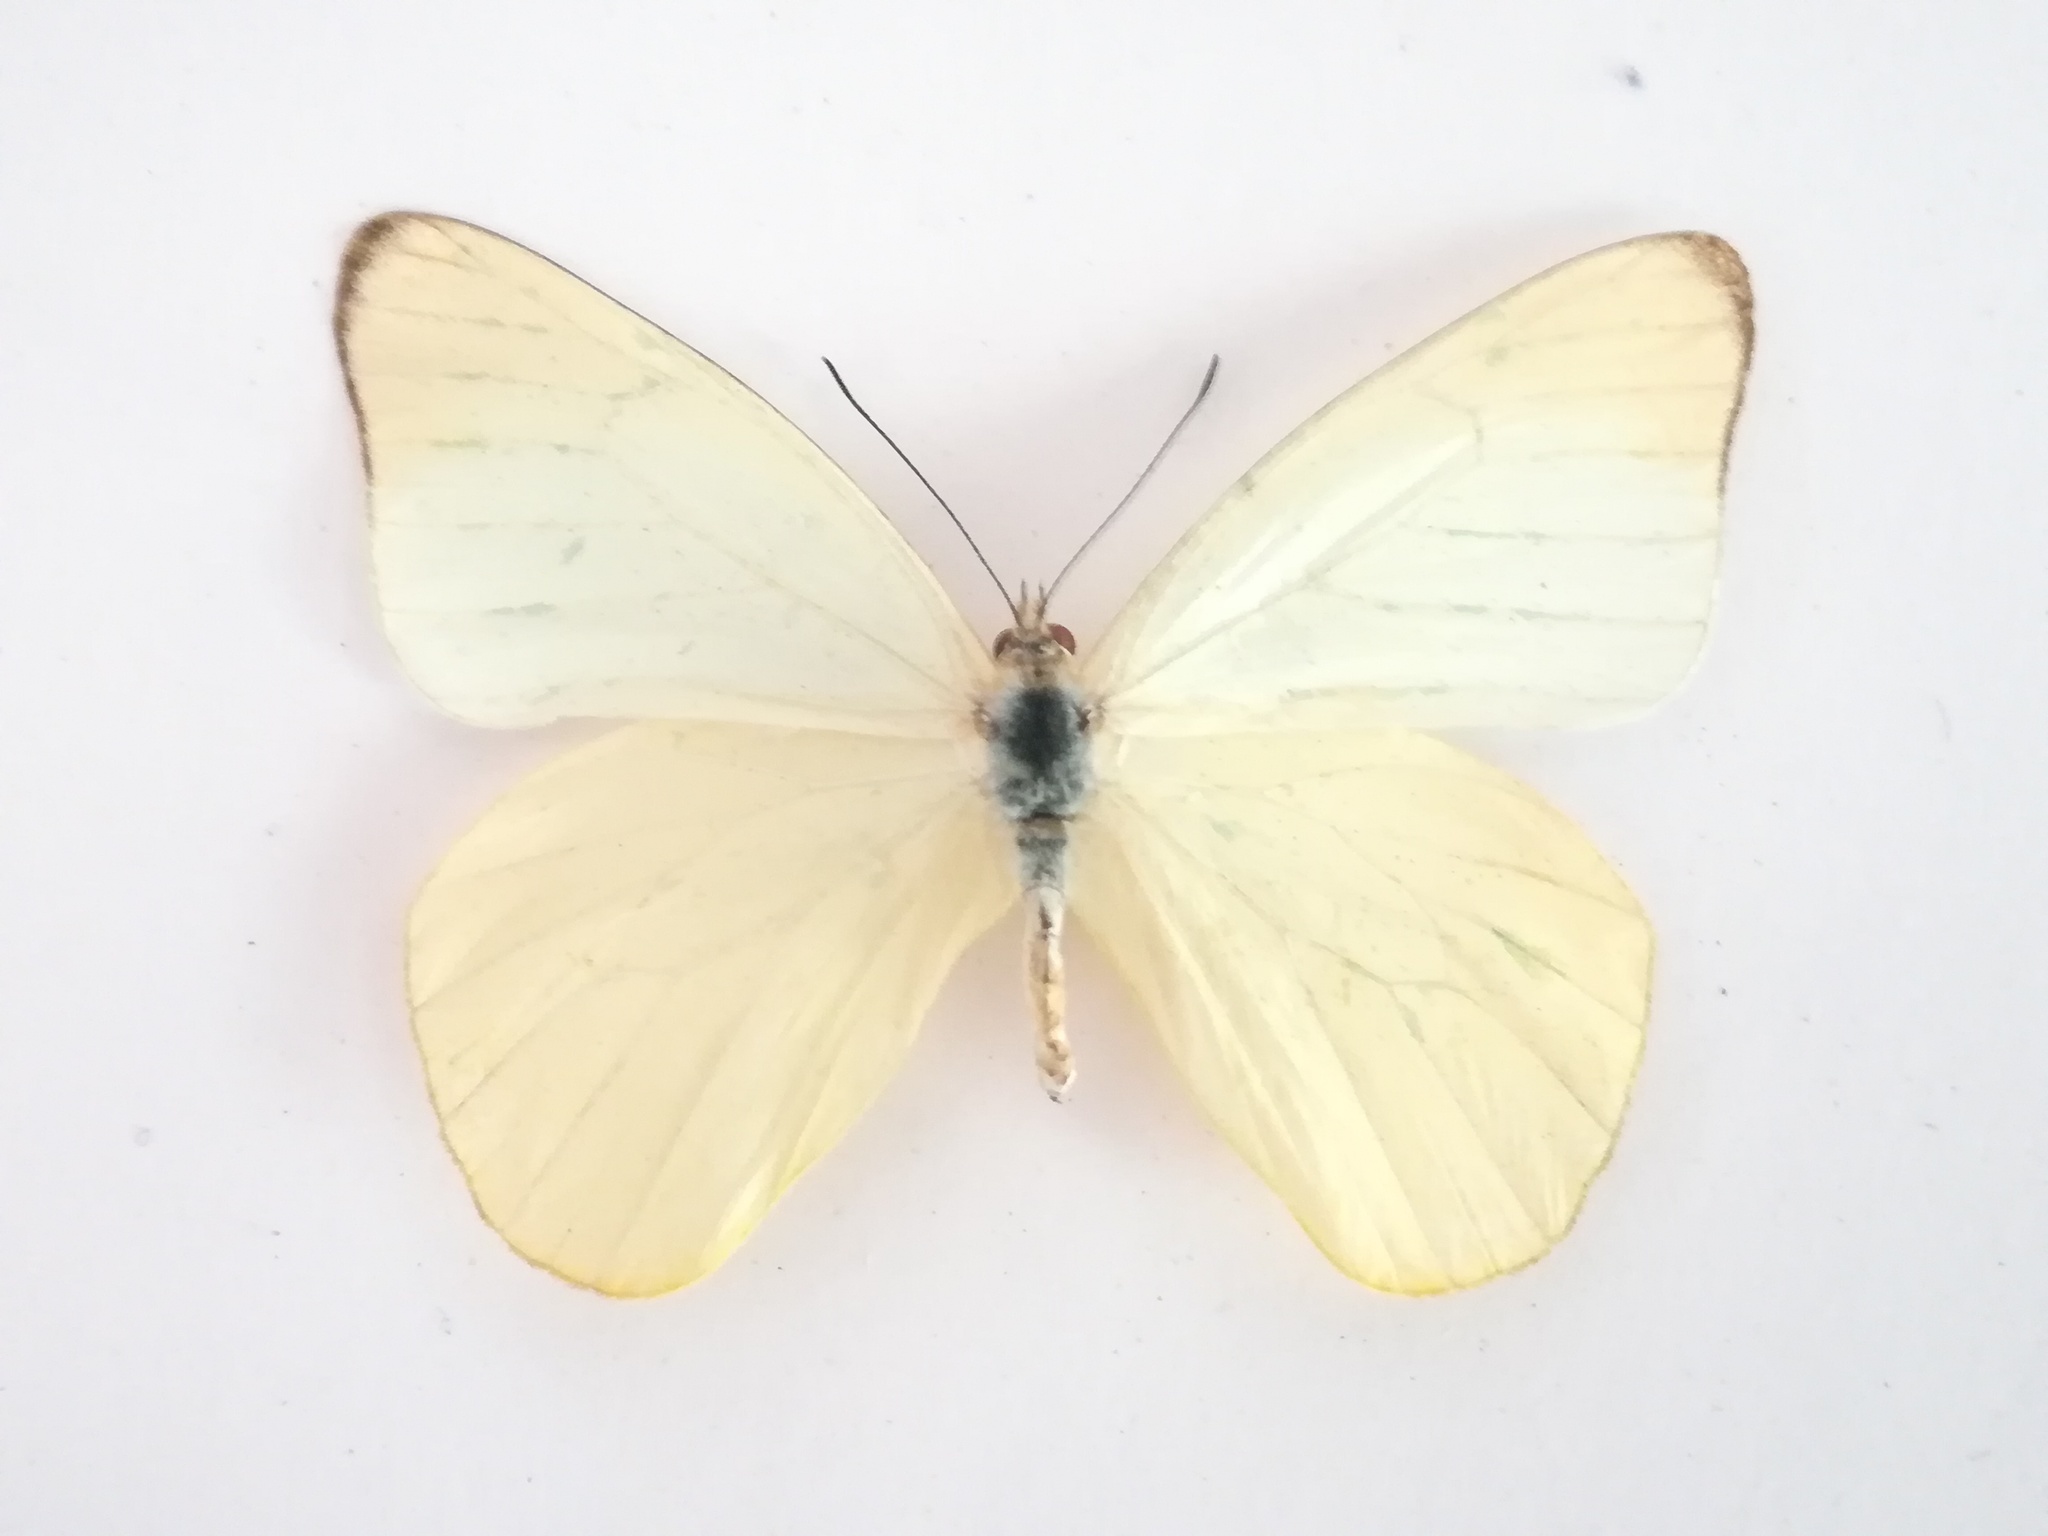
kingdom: Animalia
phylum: Arthropoda
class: Insecta
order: Lepidoptera
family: Pieridae
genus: Melete
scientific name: Melete lycimnia
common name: Common melwhite
